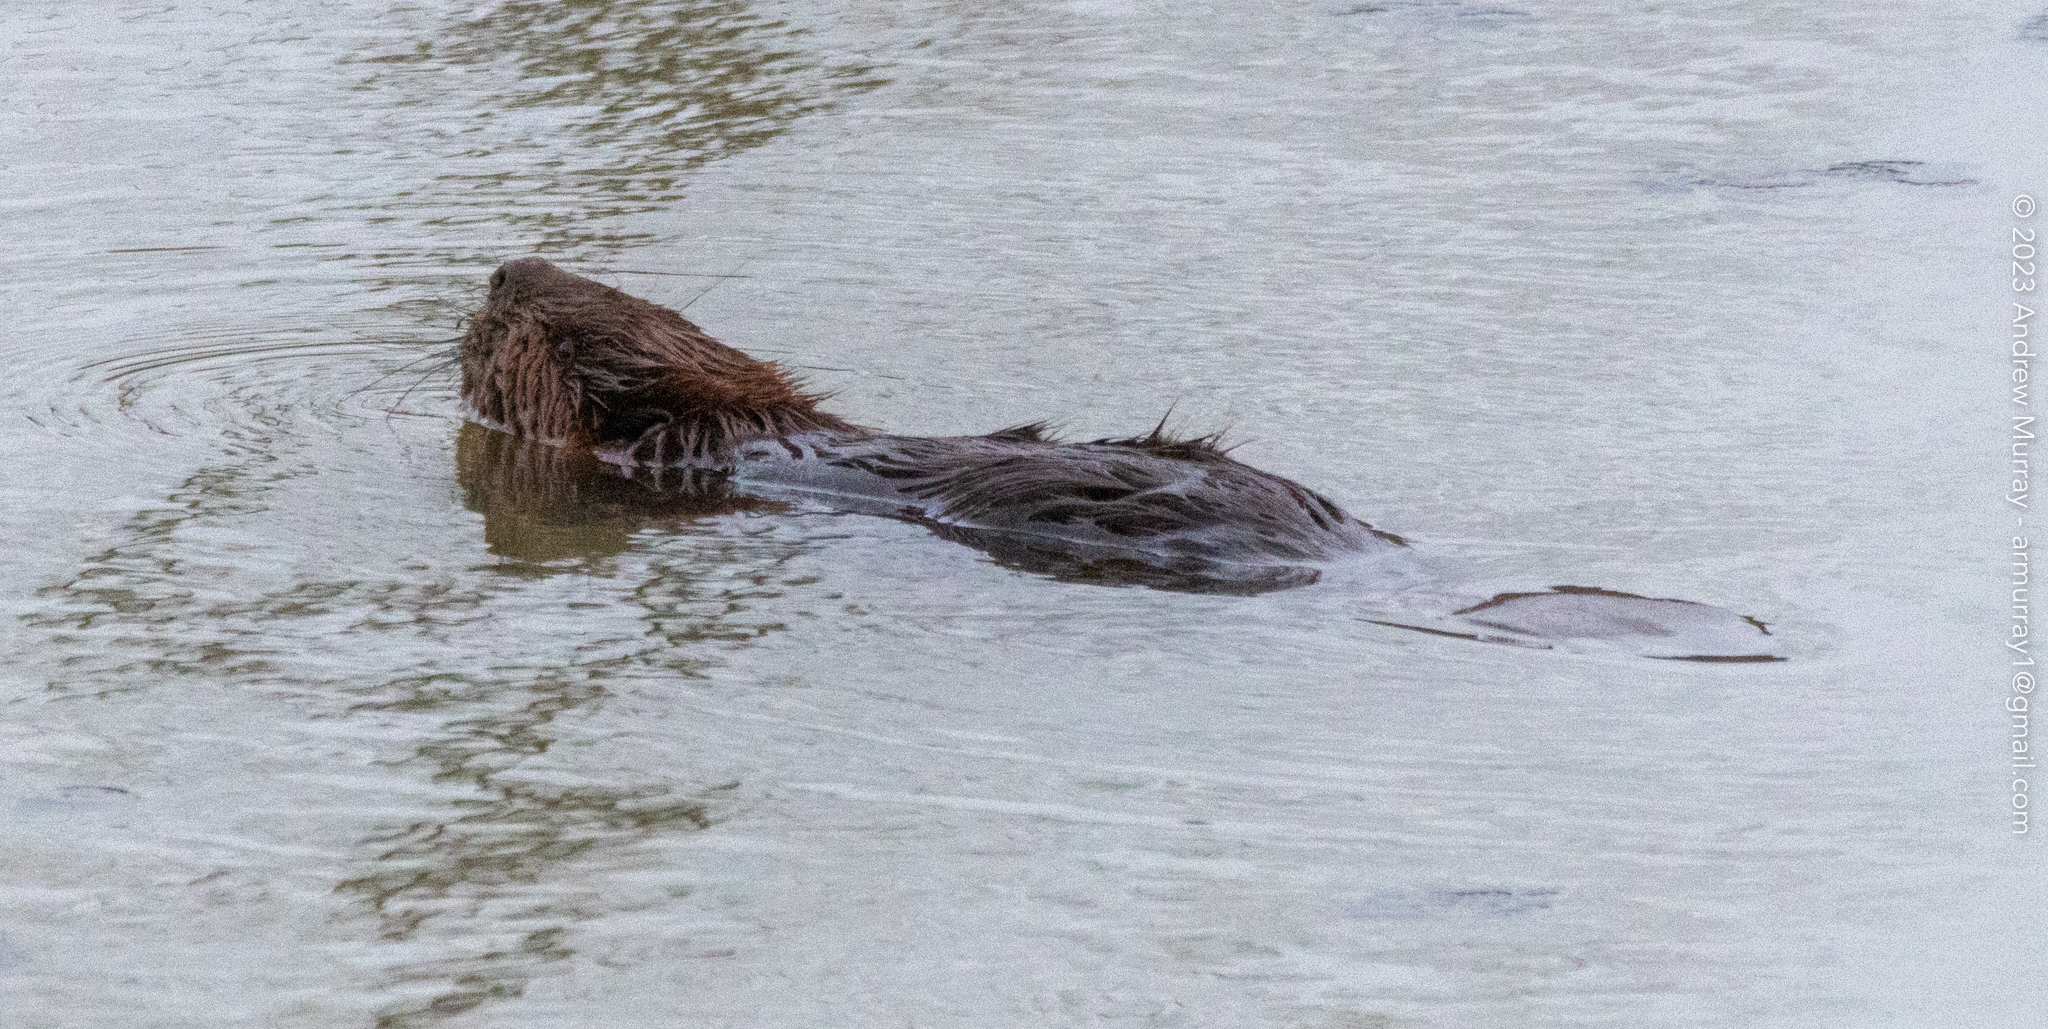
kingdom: Animalia
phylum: Chordata
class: Mammalia
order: Rodentia
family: Castoridae
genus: Castor
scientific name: Castor canadensis
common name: American beaver
